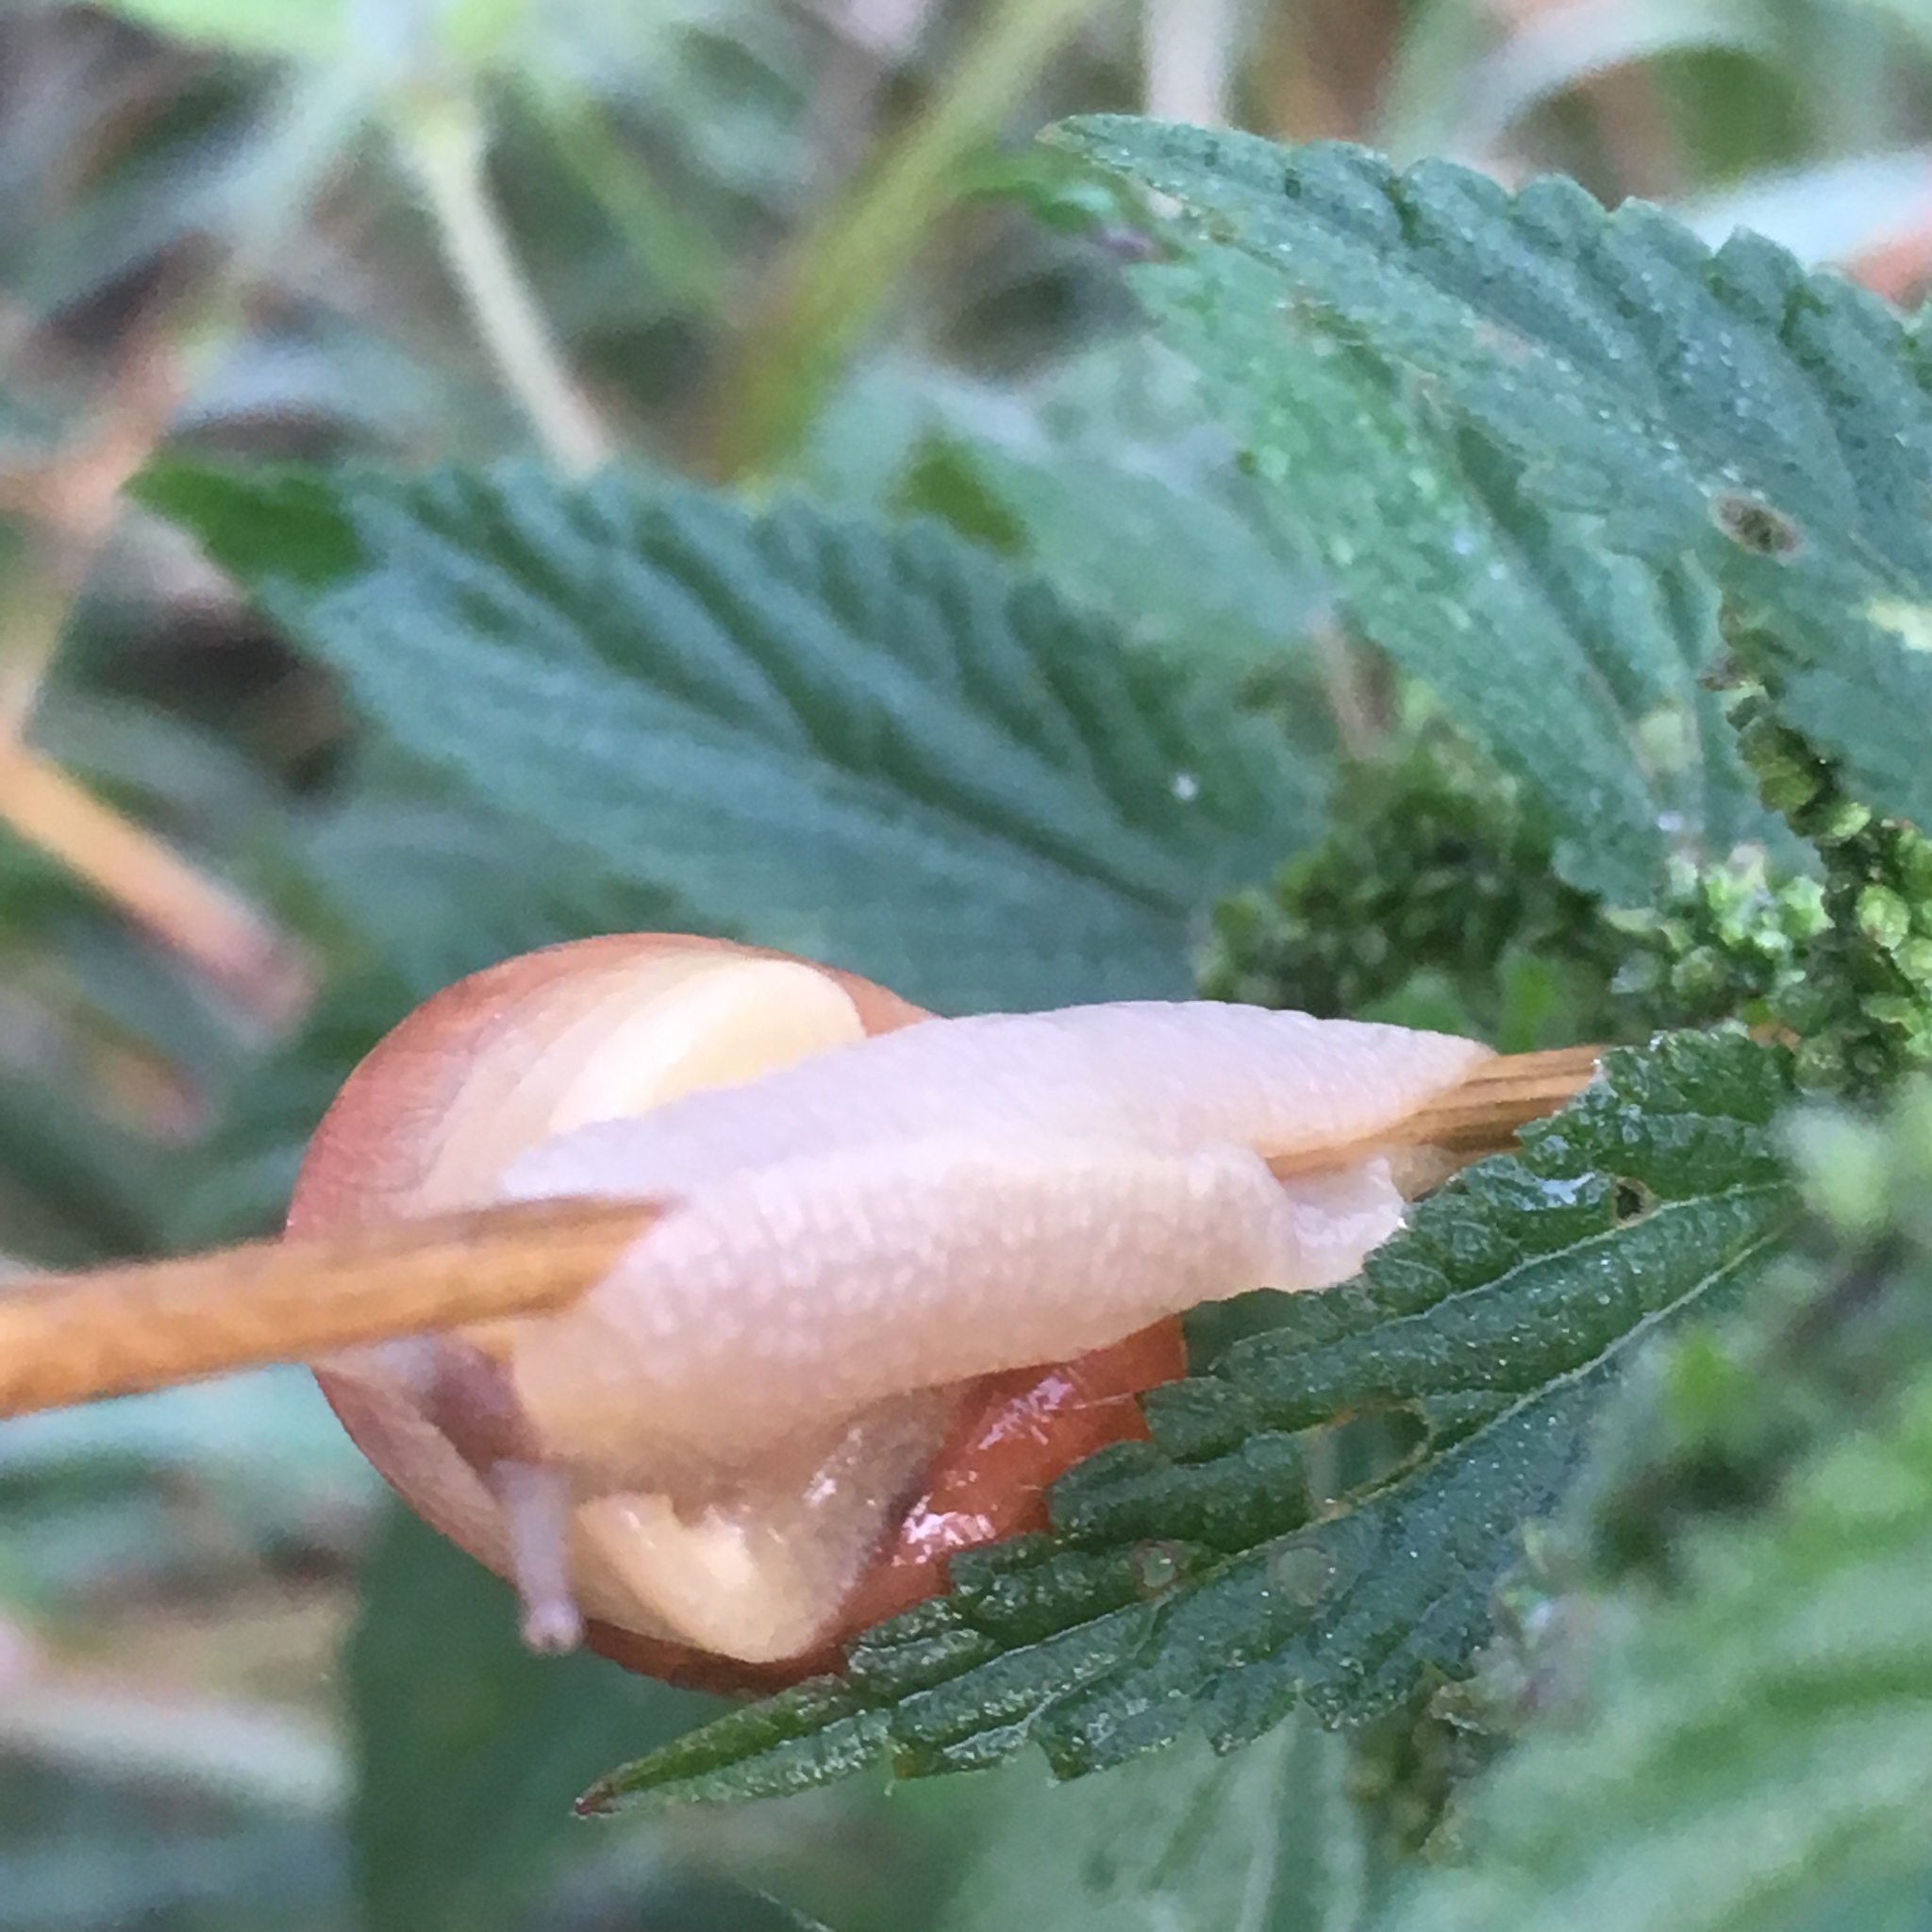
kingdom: Animalia
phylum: Mollusca
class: Gastropoda
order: Stylommatophora
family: Helicidae
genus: Cepaea
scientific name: Cepaea
